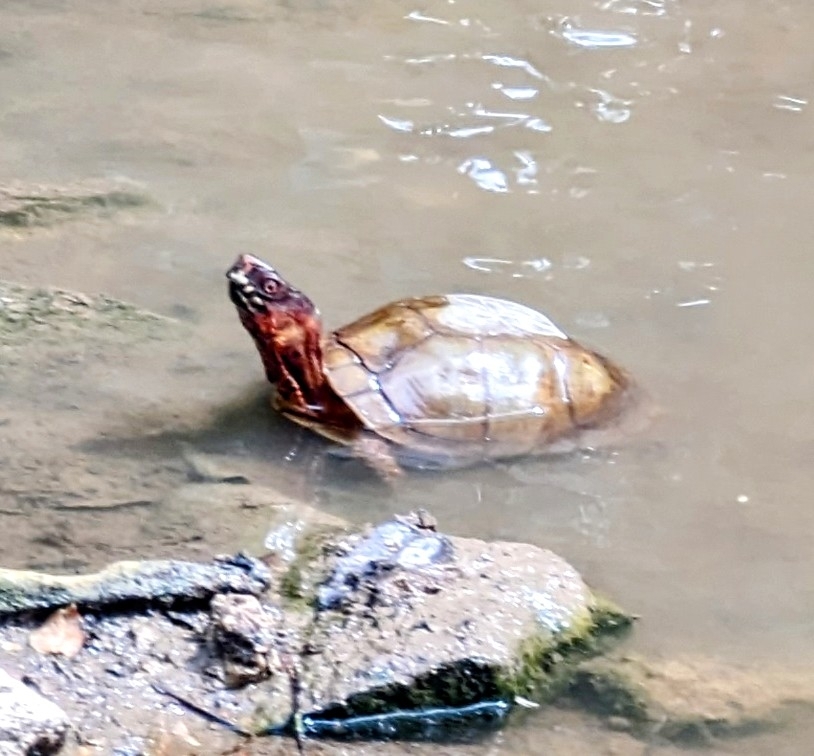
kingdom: Animalia
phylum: Chordata
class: Testudines
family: Emydidae
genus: Terrapene
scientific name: Terrapene carolina
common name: Common box turtle
